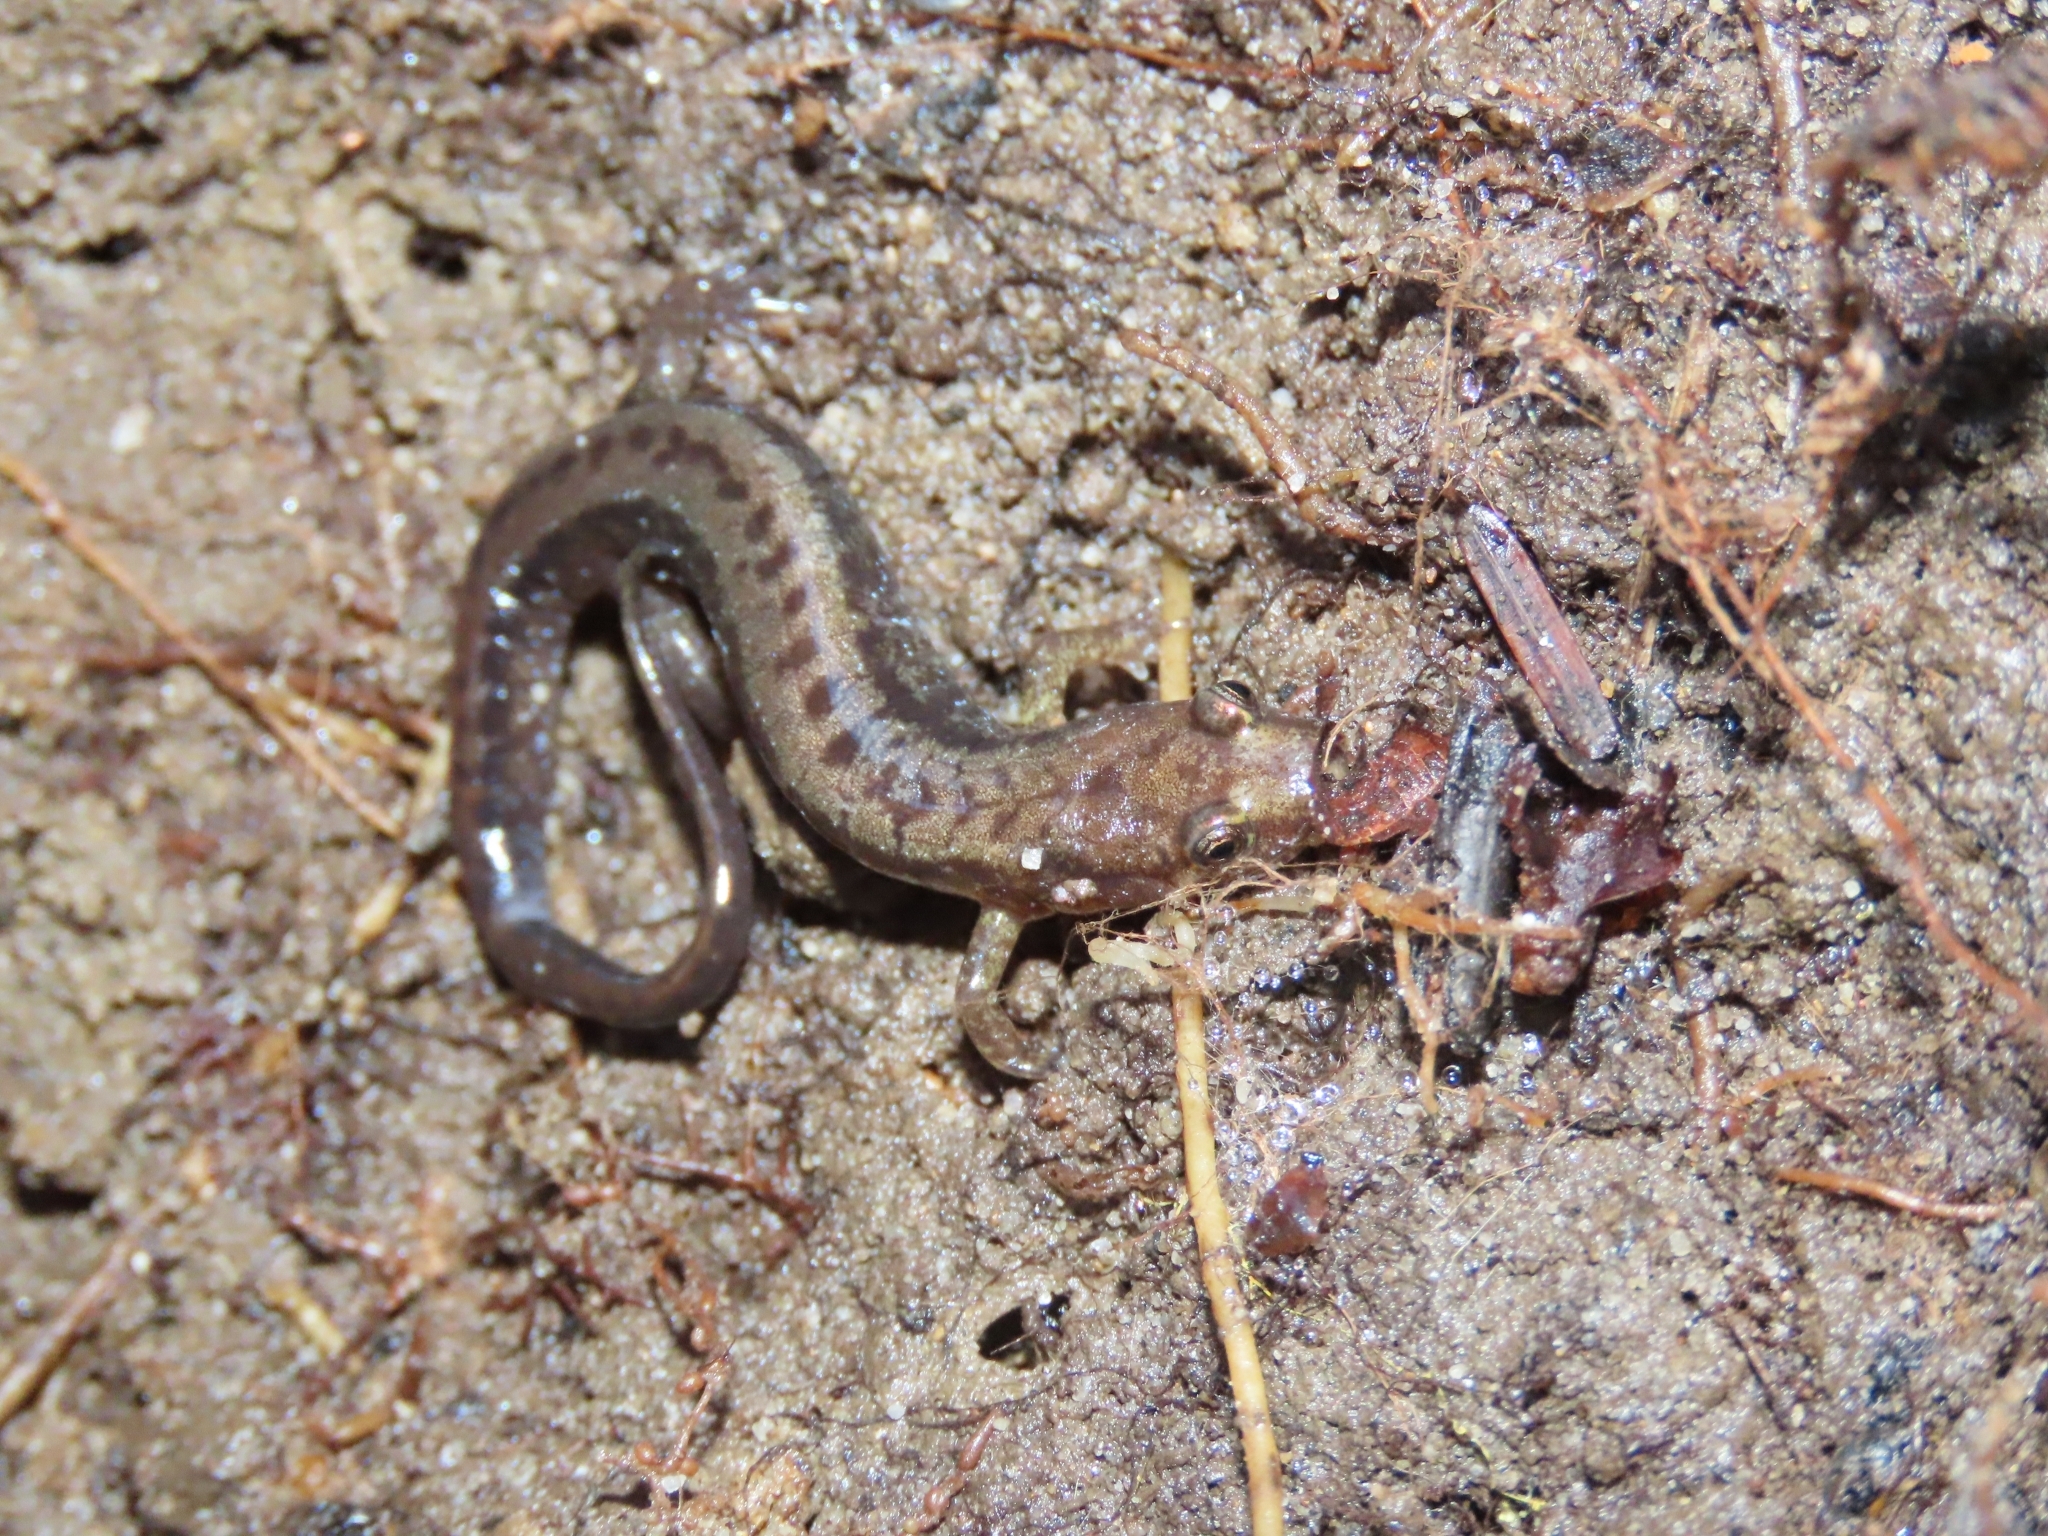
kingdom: Animalia
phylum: Chordata
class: Amphibia
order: Caudata
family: Plethodontidae
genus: Desmognathus
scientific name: Desmognathus ochrophaeus
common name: Allegheny mountain dusky salamander
